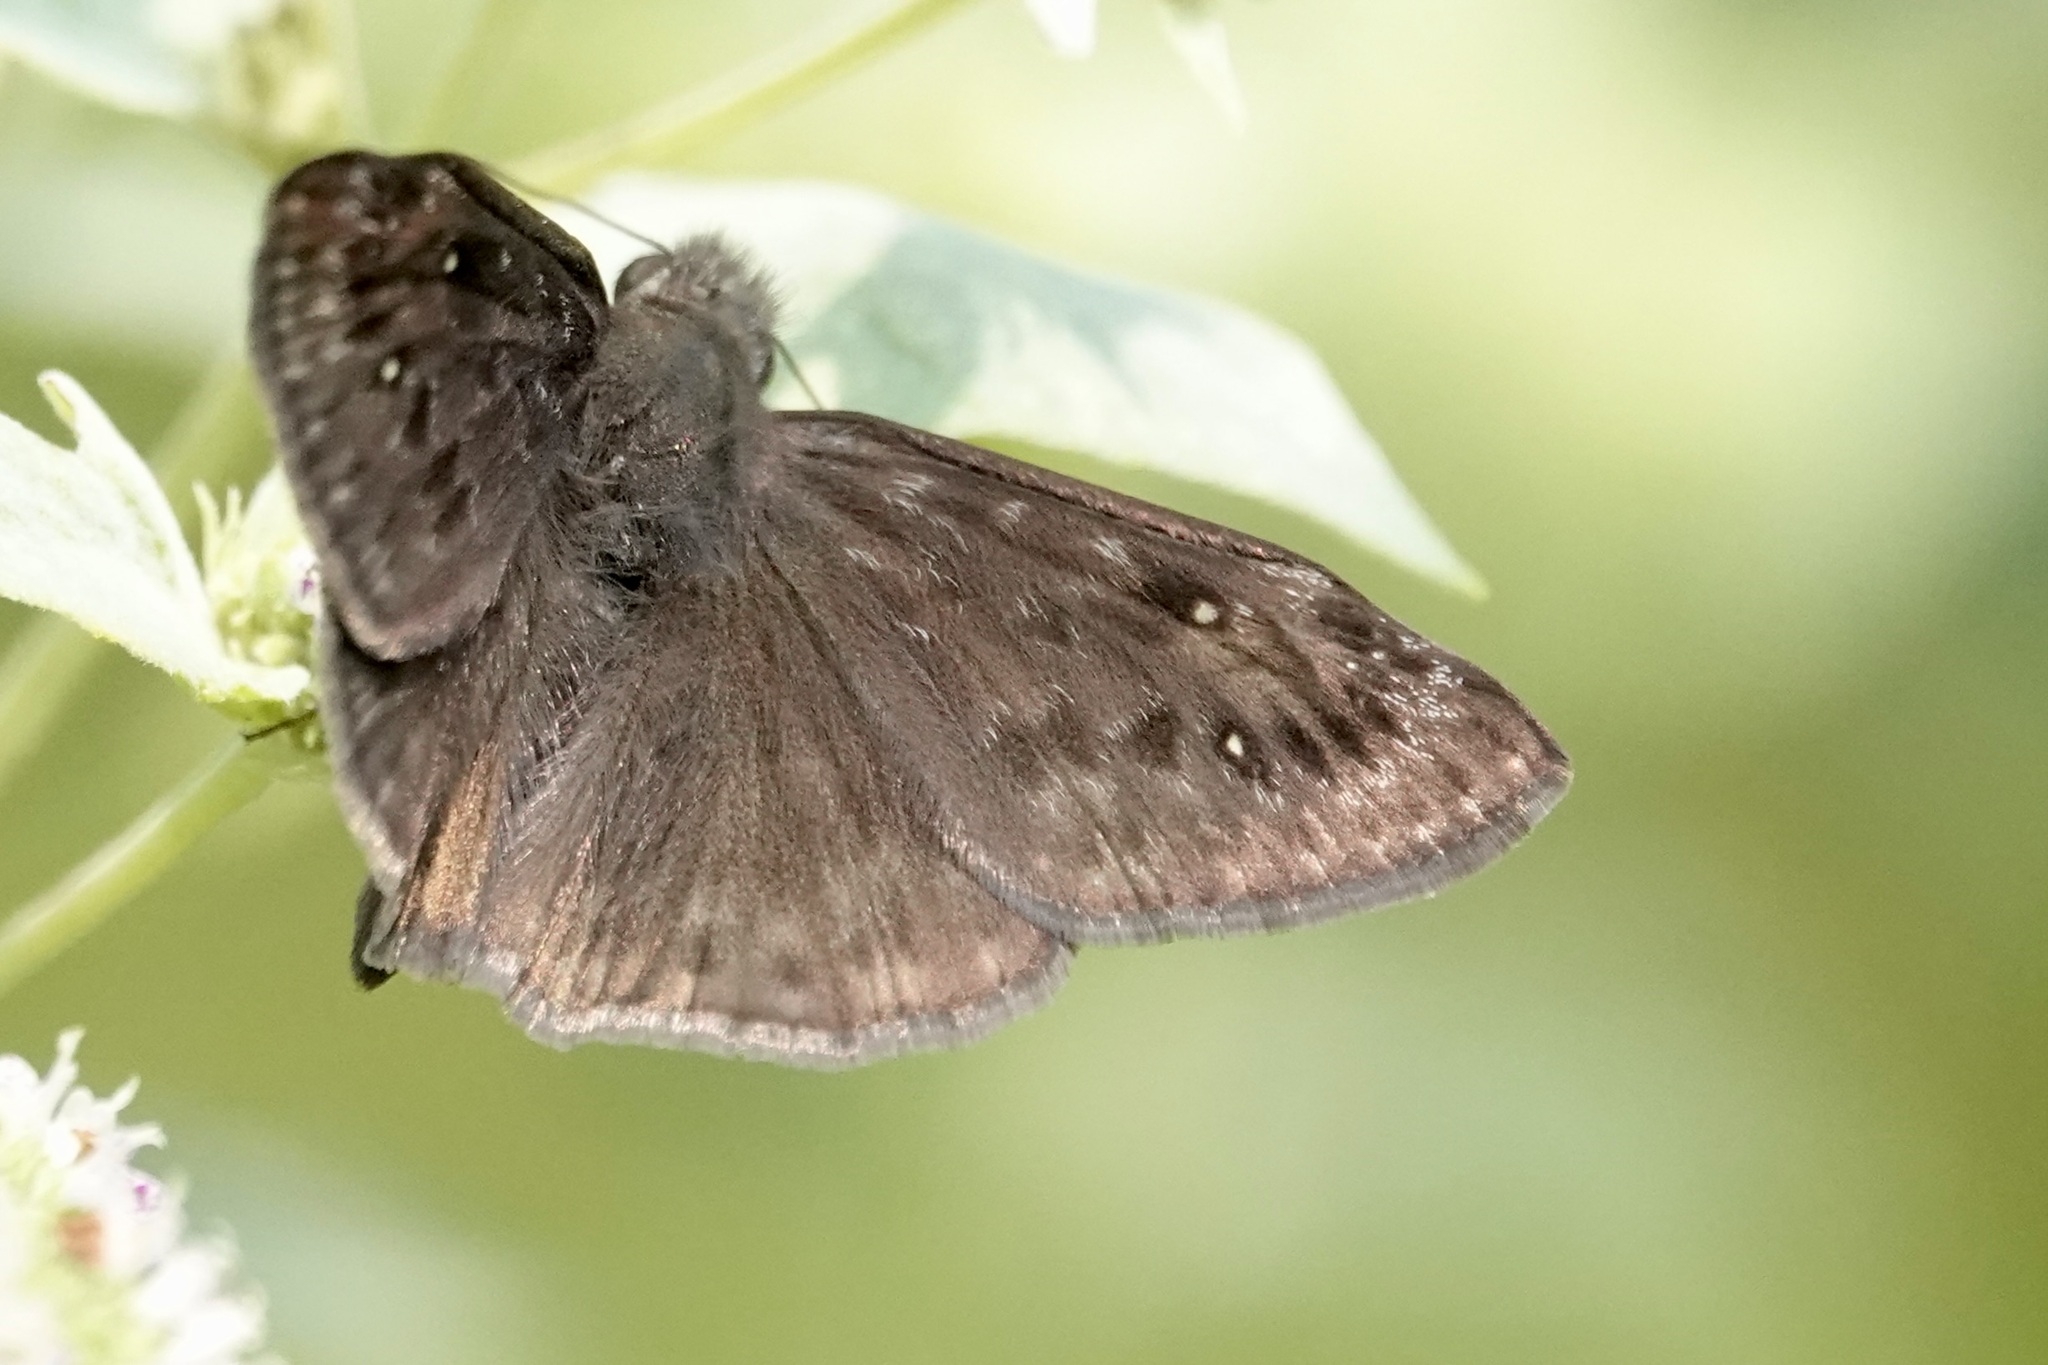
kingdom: Animalia
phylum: Arthropoda
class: Insecta
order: Lepidoptera
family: Hesperiidae
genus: Erynnis
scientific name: Erynnis horatius
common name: Horace's duskywing
